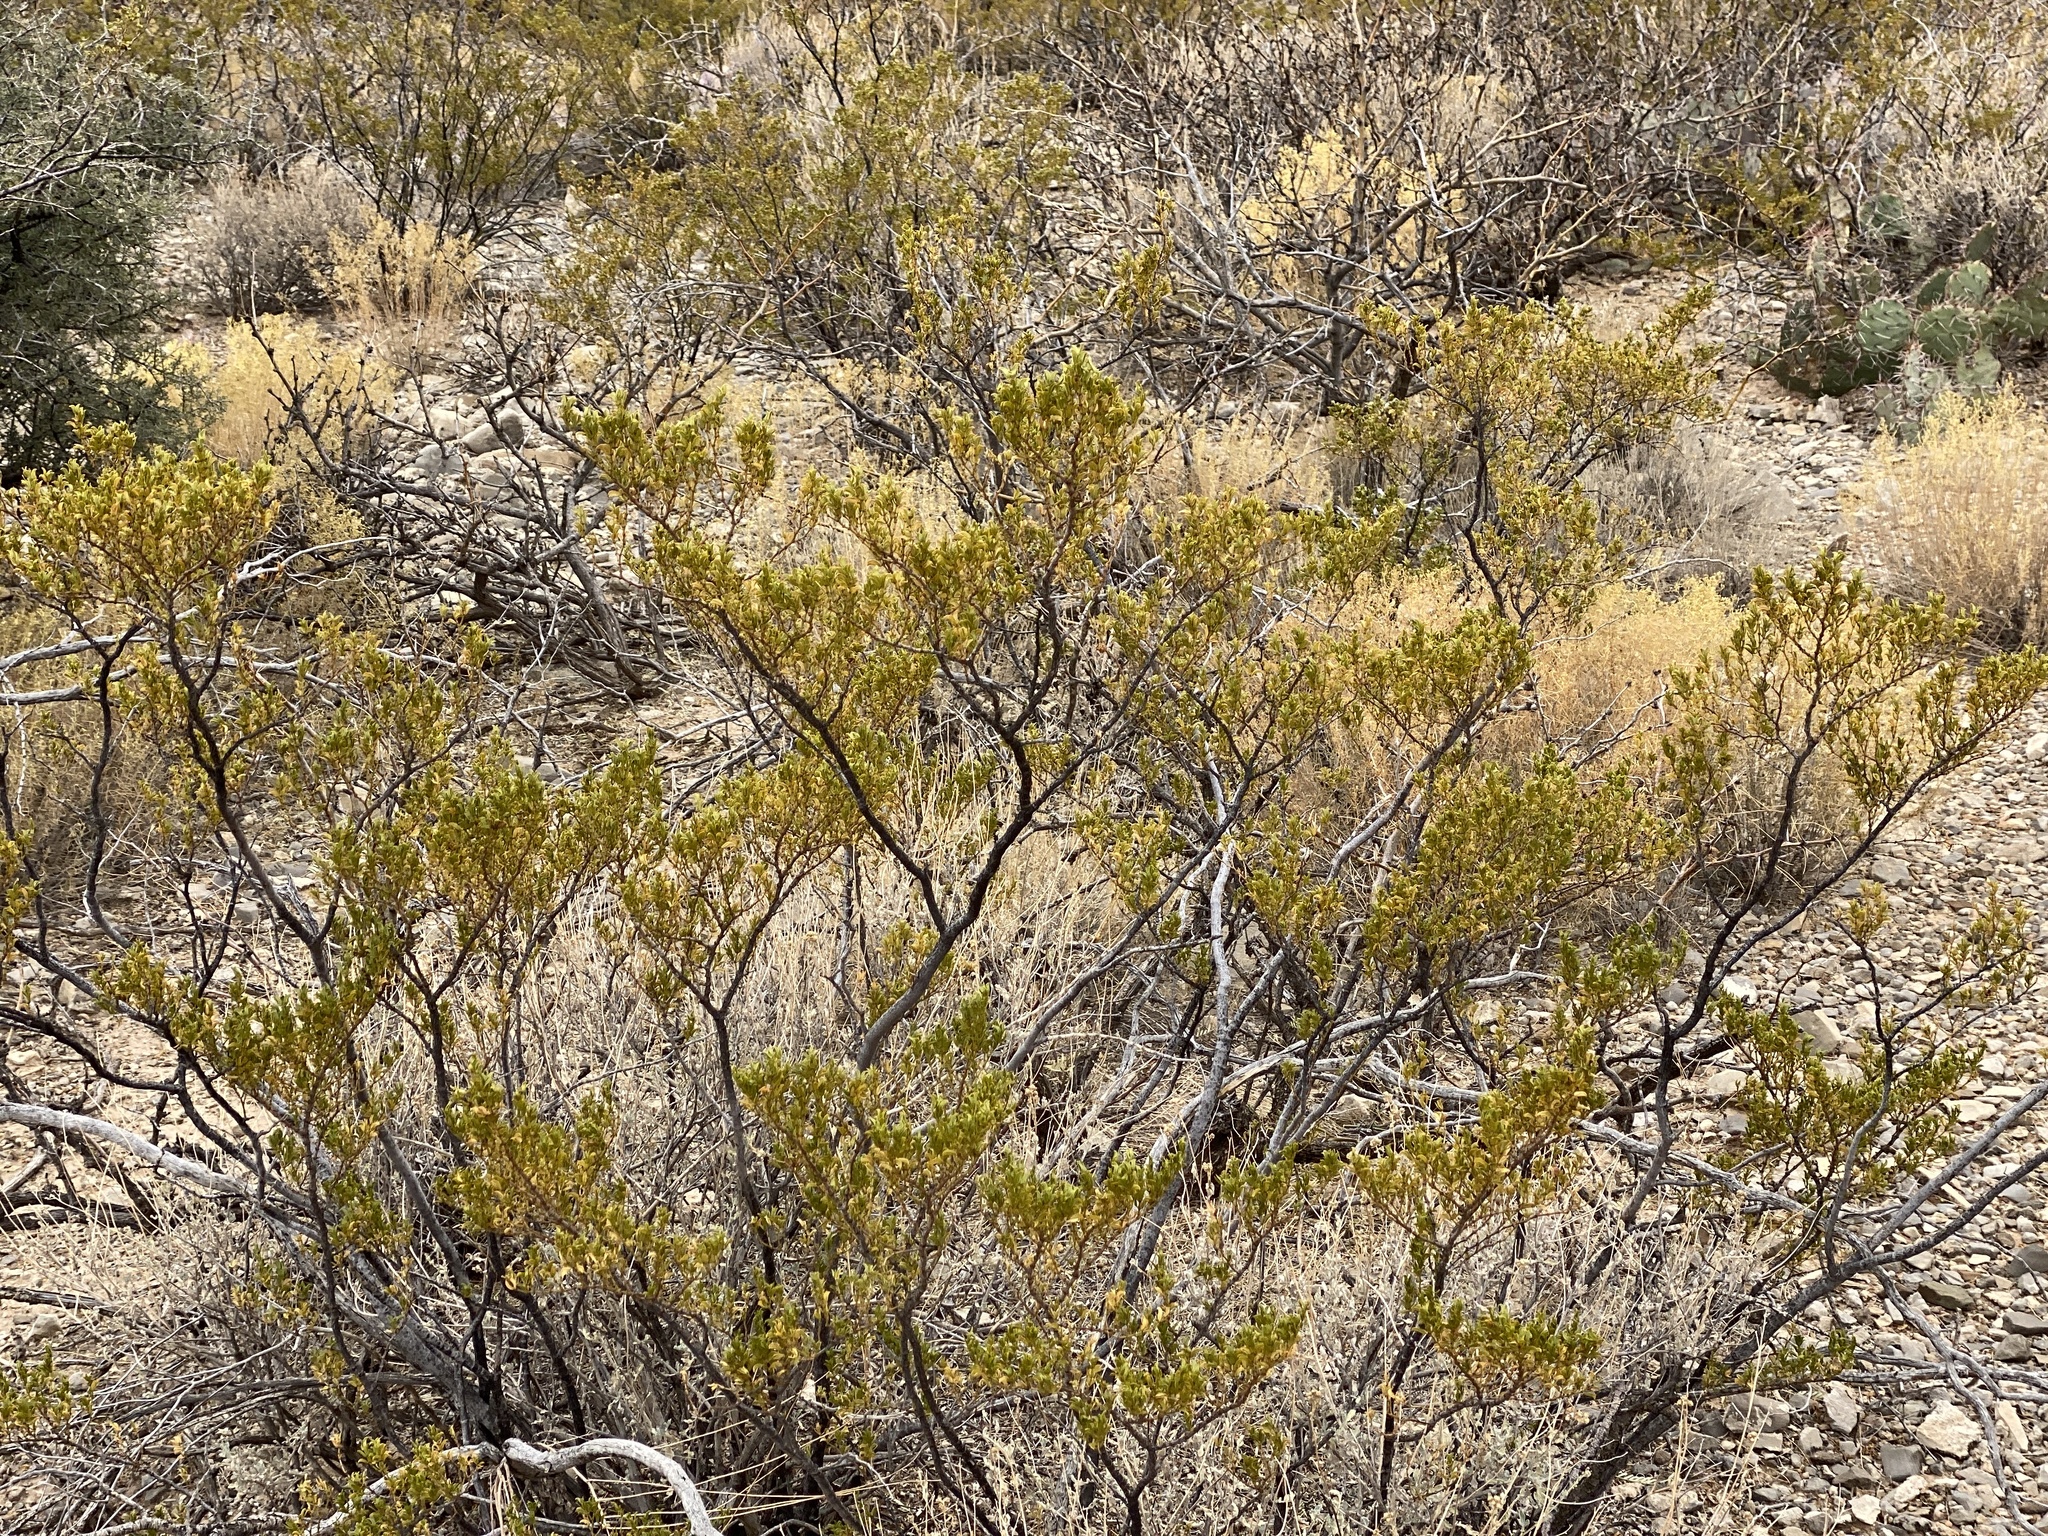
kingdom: Plantae
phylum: Tracheophyta
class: Magnoliopsida
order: Zygophyllales
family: Zygophyllaceae
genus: Larrea
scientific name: Larrea tridentata
